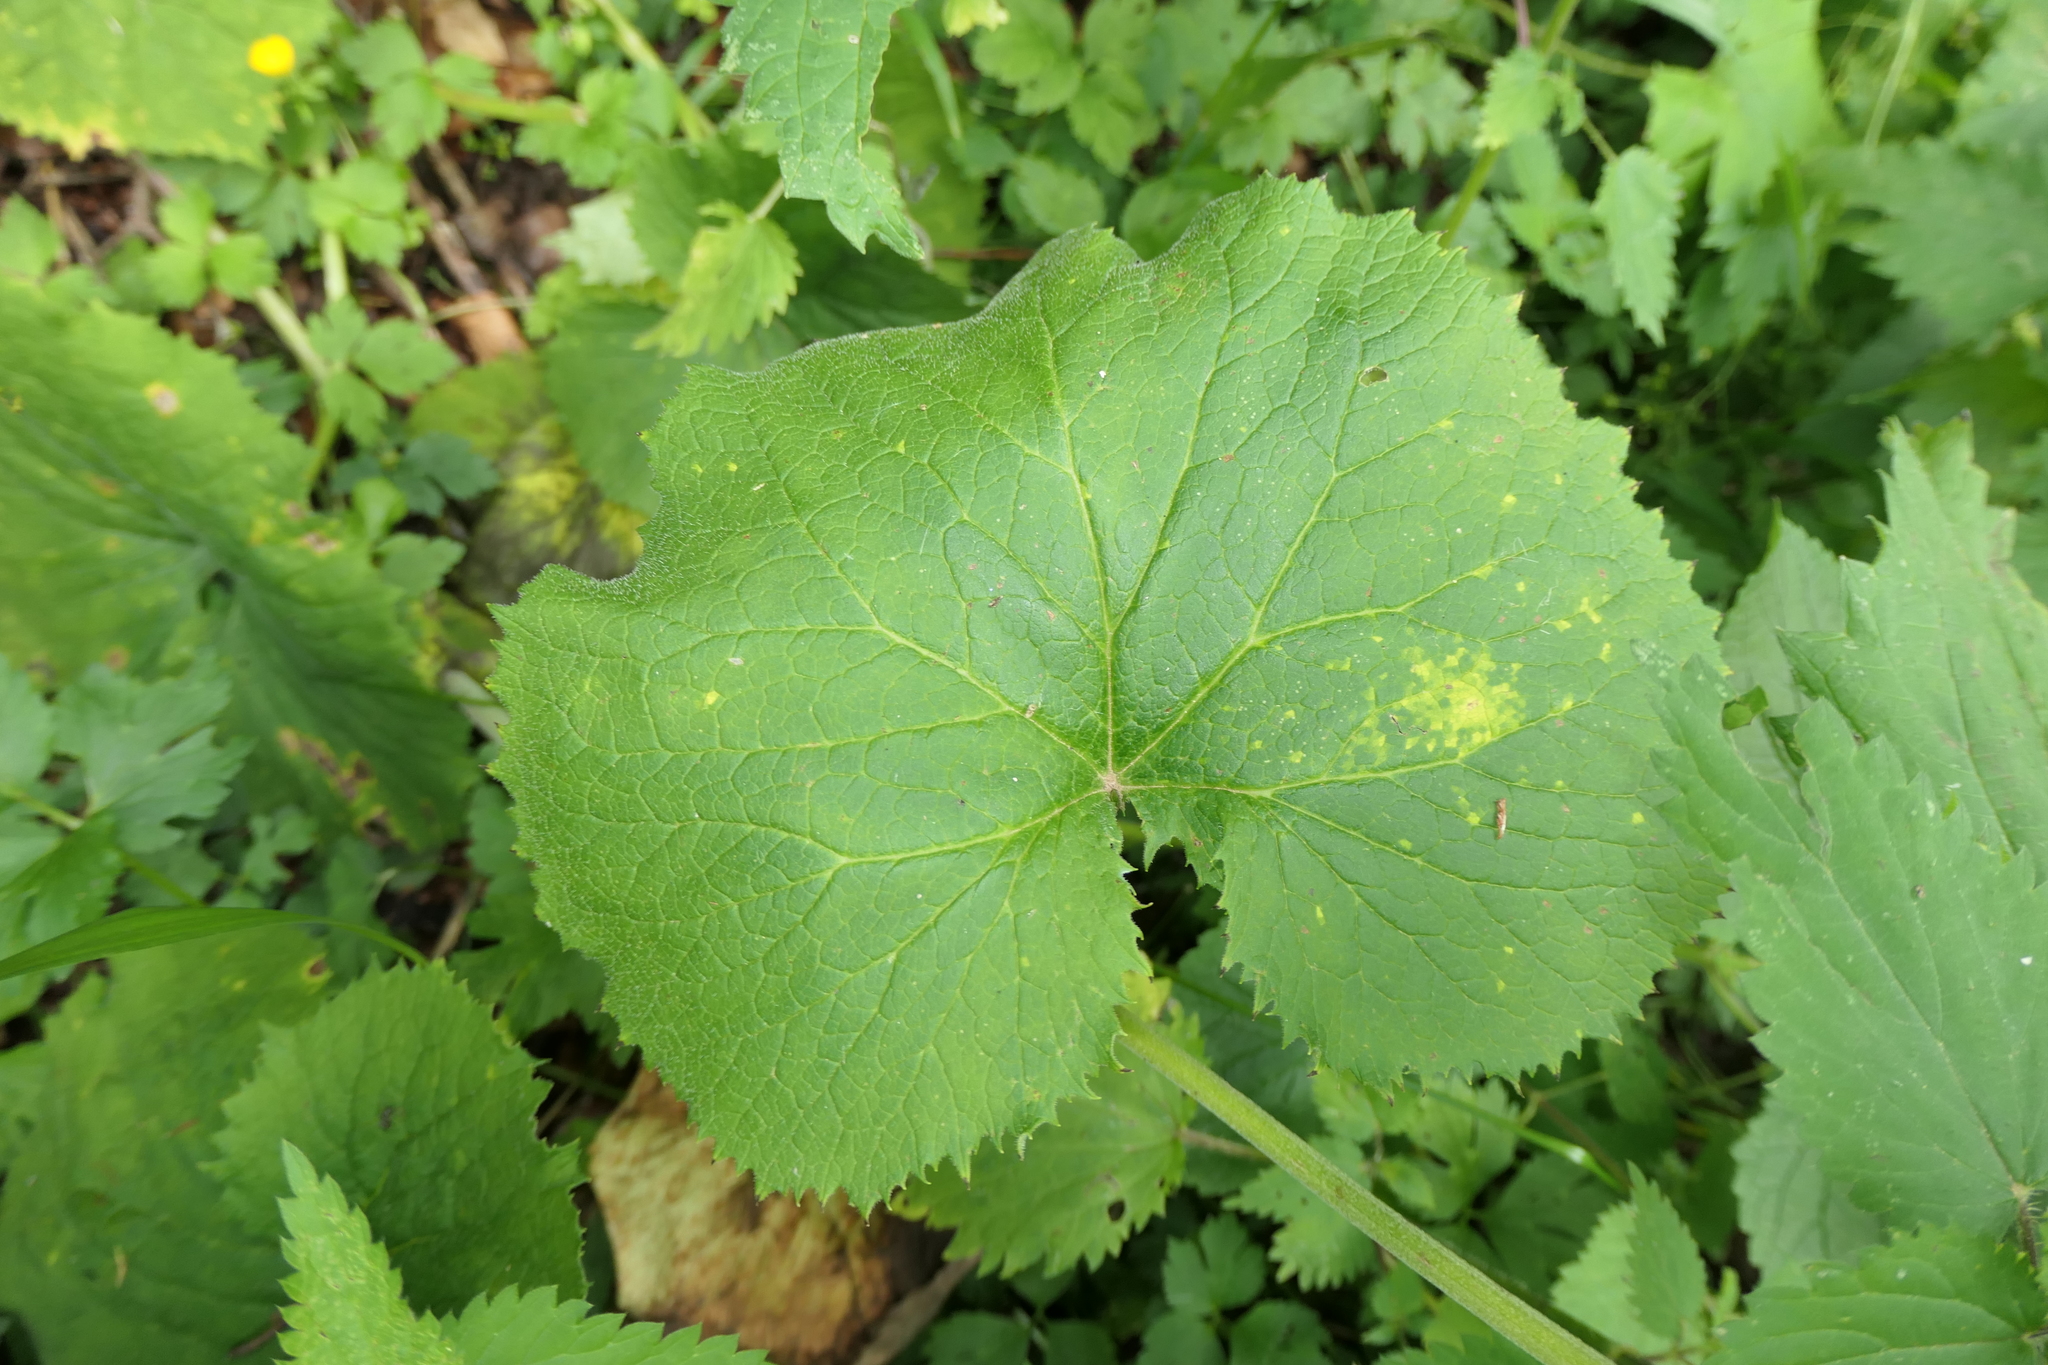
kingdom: Plantae
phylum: Tracheophyta
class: Magnoliopsida
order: Asterales
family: Asteraceae
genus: Adenostyles
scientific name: Adenostyles alpina
